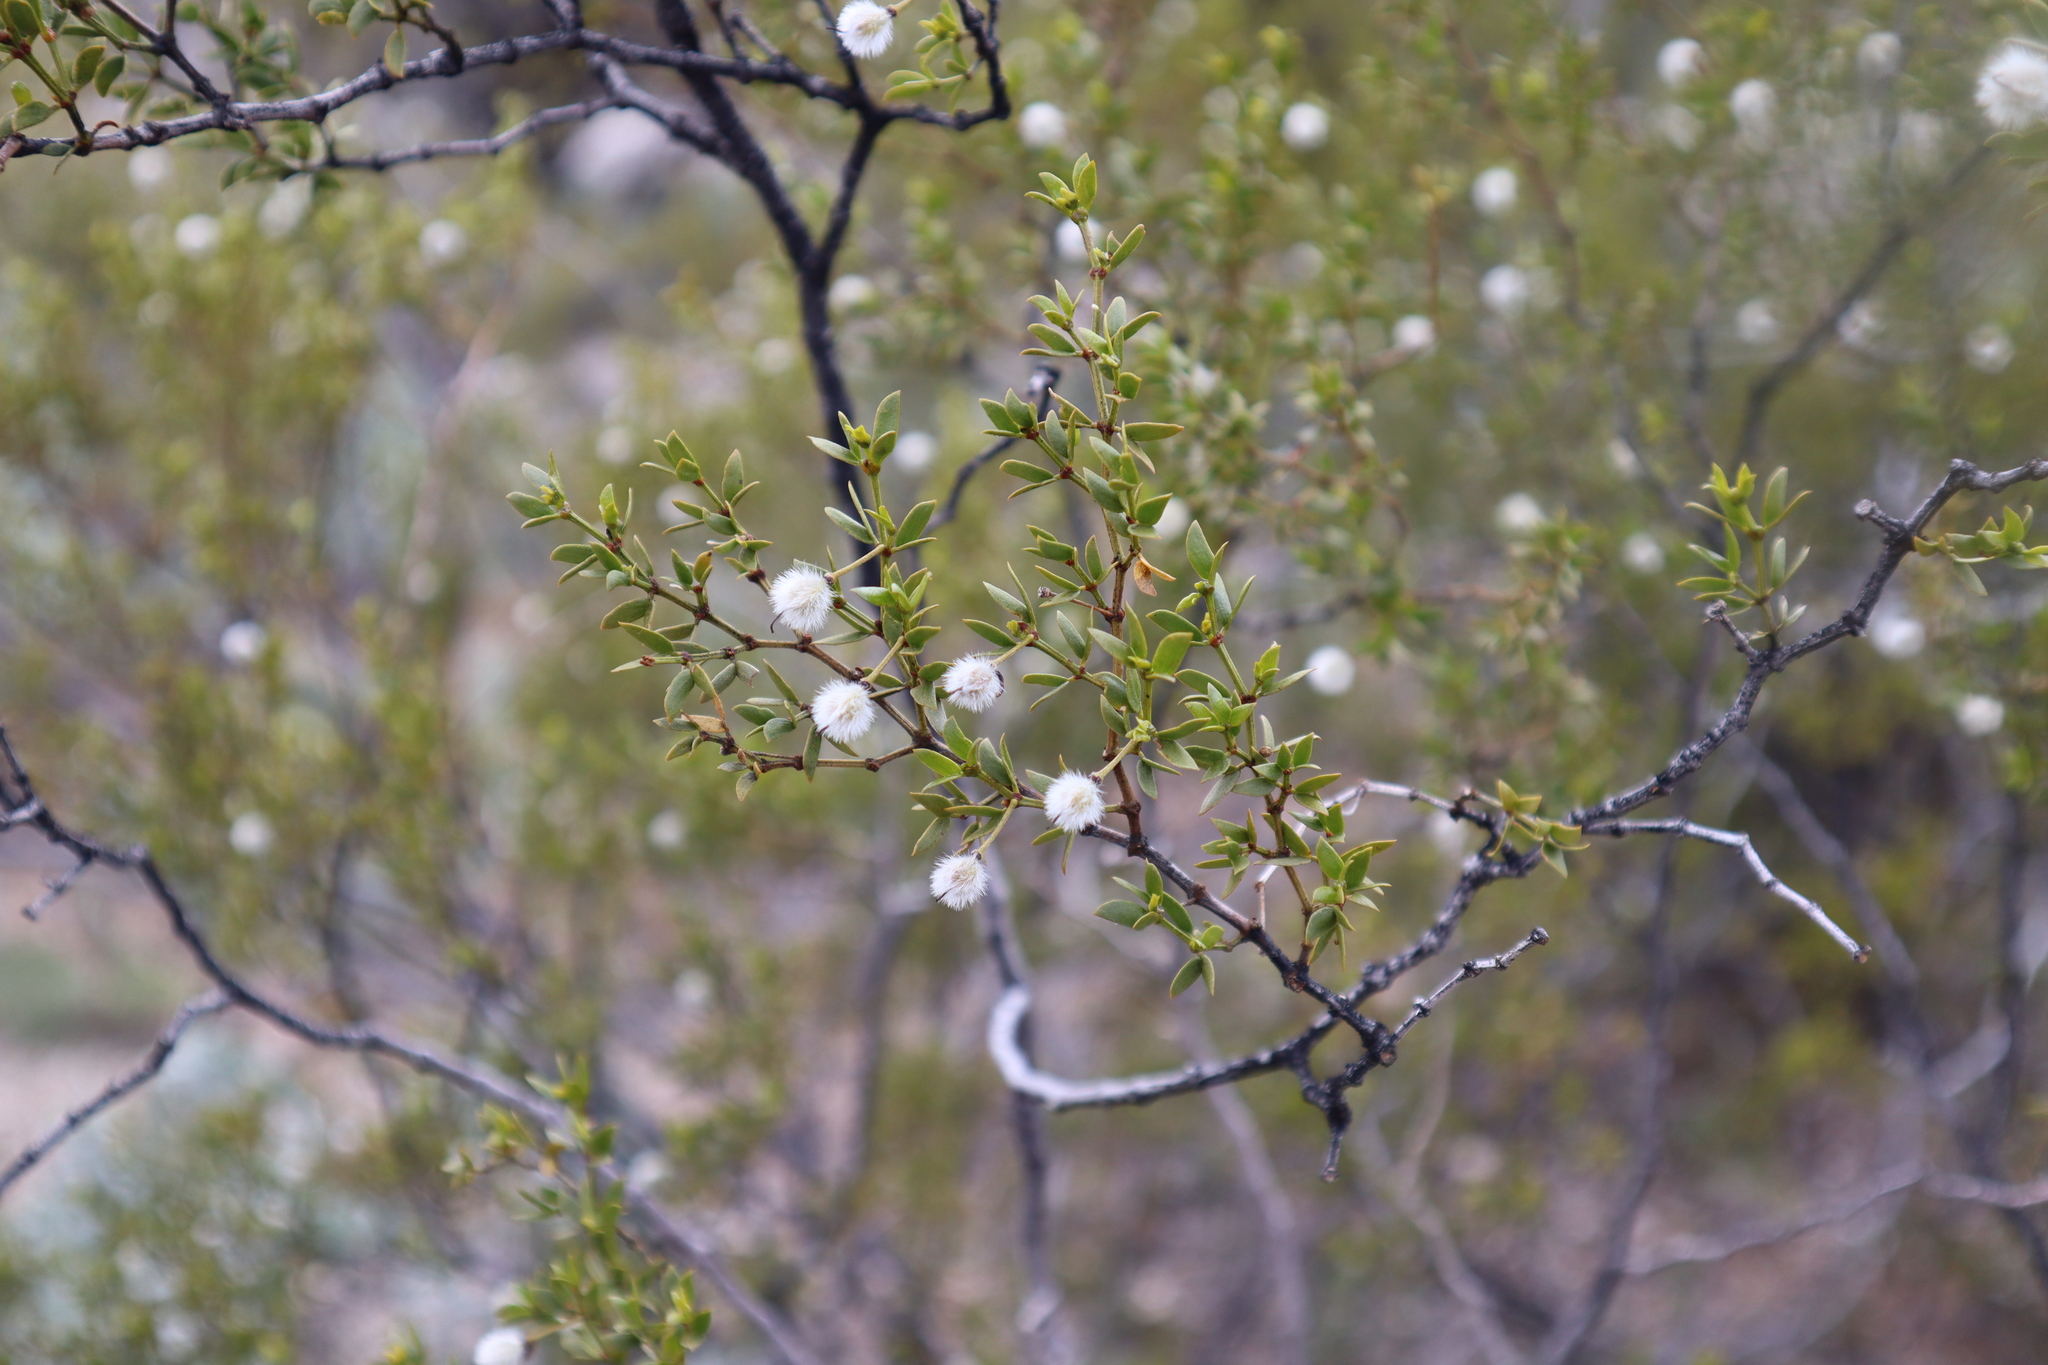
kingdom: Plantae
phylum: Tracheophyta
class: Magnoliopsida
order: Zygophyllales
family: Zygophyllaceae
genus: Larrea
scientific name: Larrea tridentata
